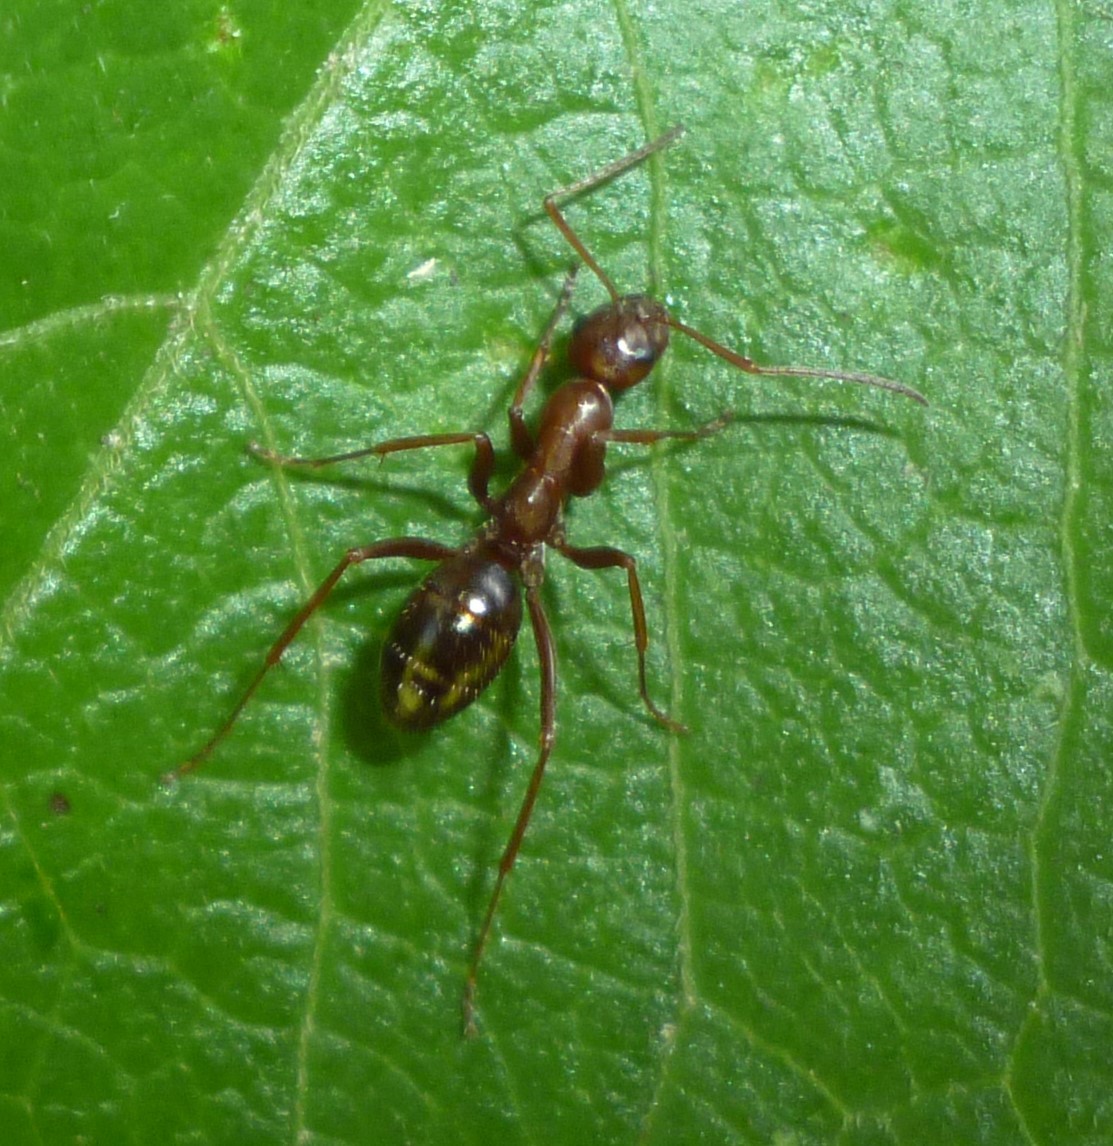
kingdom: Animalia
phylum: Arthropoda
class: Insecta
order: Hymenoptera
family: Formicidae
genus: Formica
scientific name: Formica
